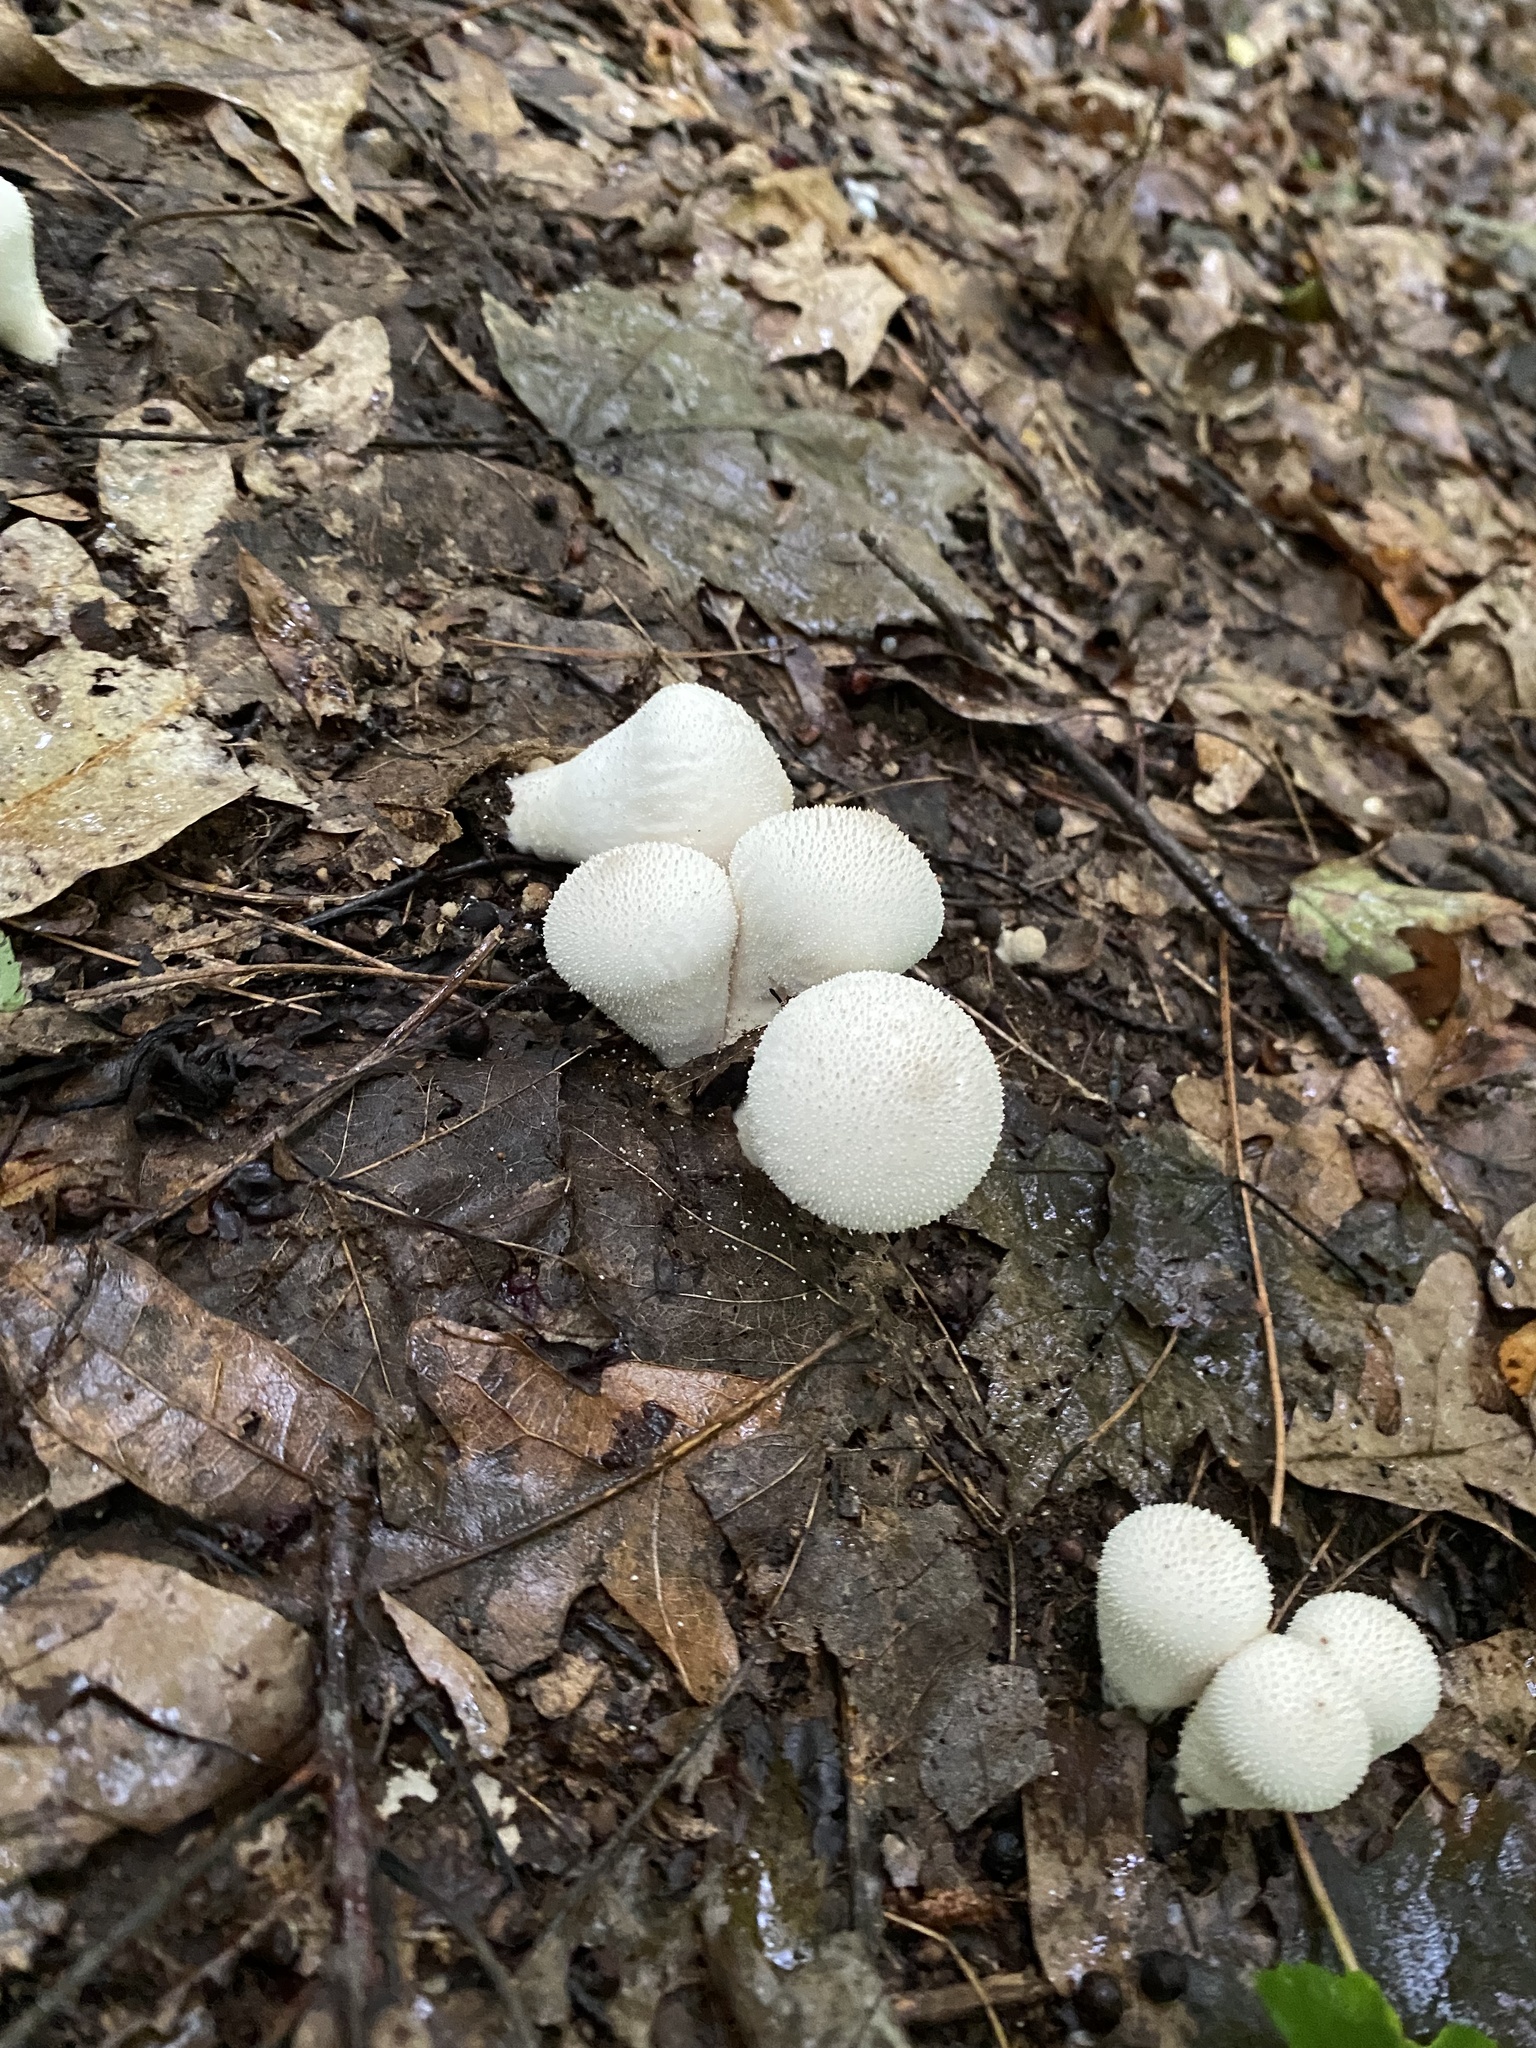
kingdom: Fungi
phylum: Basidiomycota
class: Agaricomycetes
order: Agaricales
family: Lycoperdaceae
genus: Lycoperdon
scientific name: Lycoperdon perlatum
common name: Common puffball
